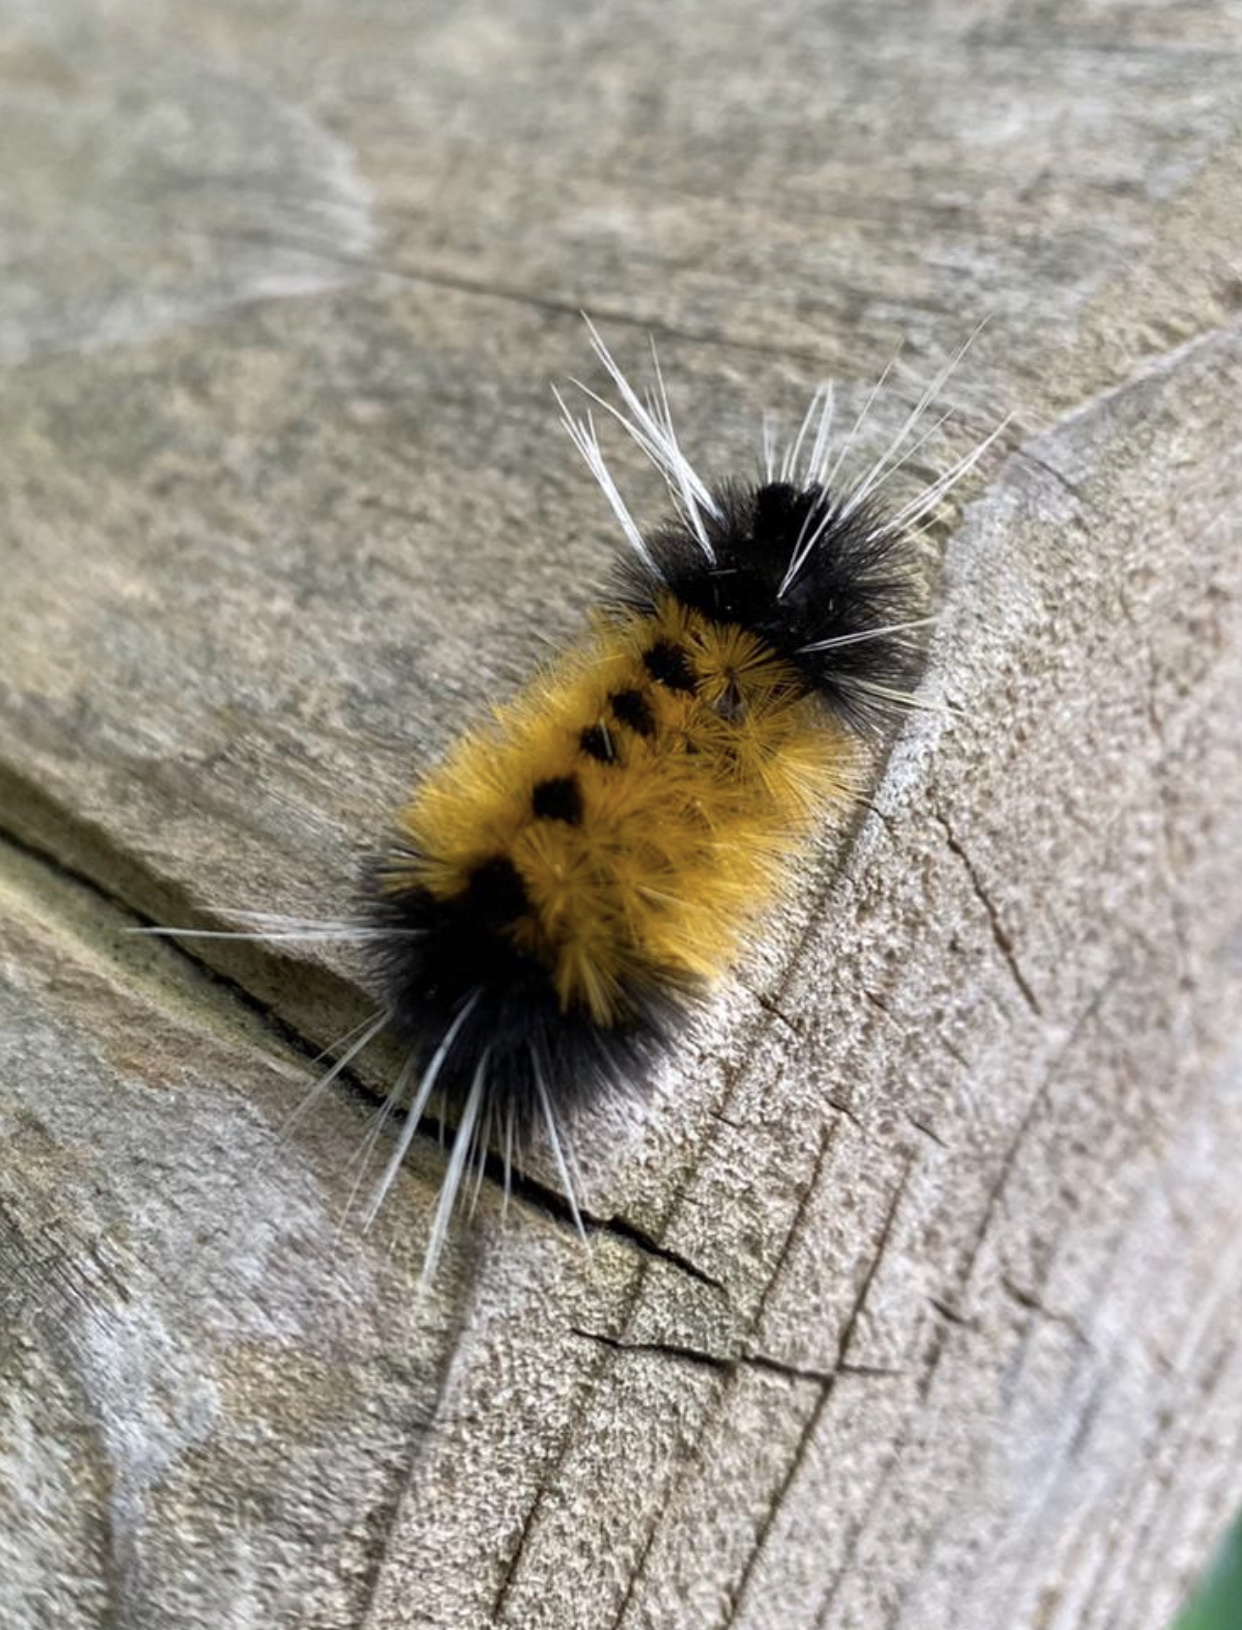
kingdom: Animalia
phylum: Arthropoda
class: Insecta
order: Lepidoptera
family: Erebidae
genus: Lophocampa
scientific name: Lophocampa maculata
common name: Spotted tussock moth
